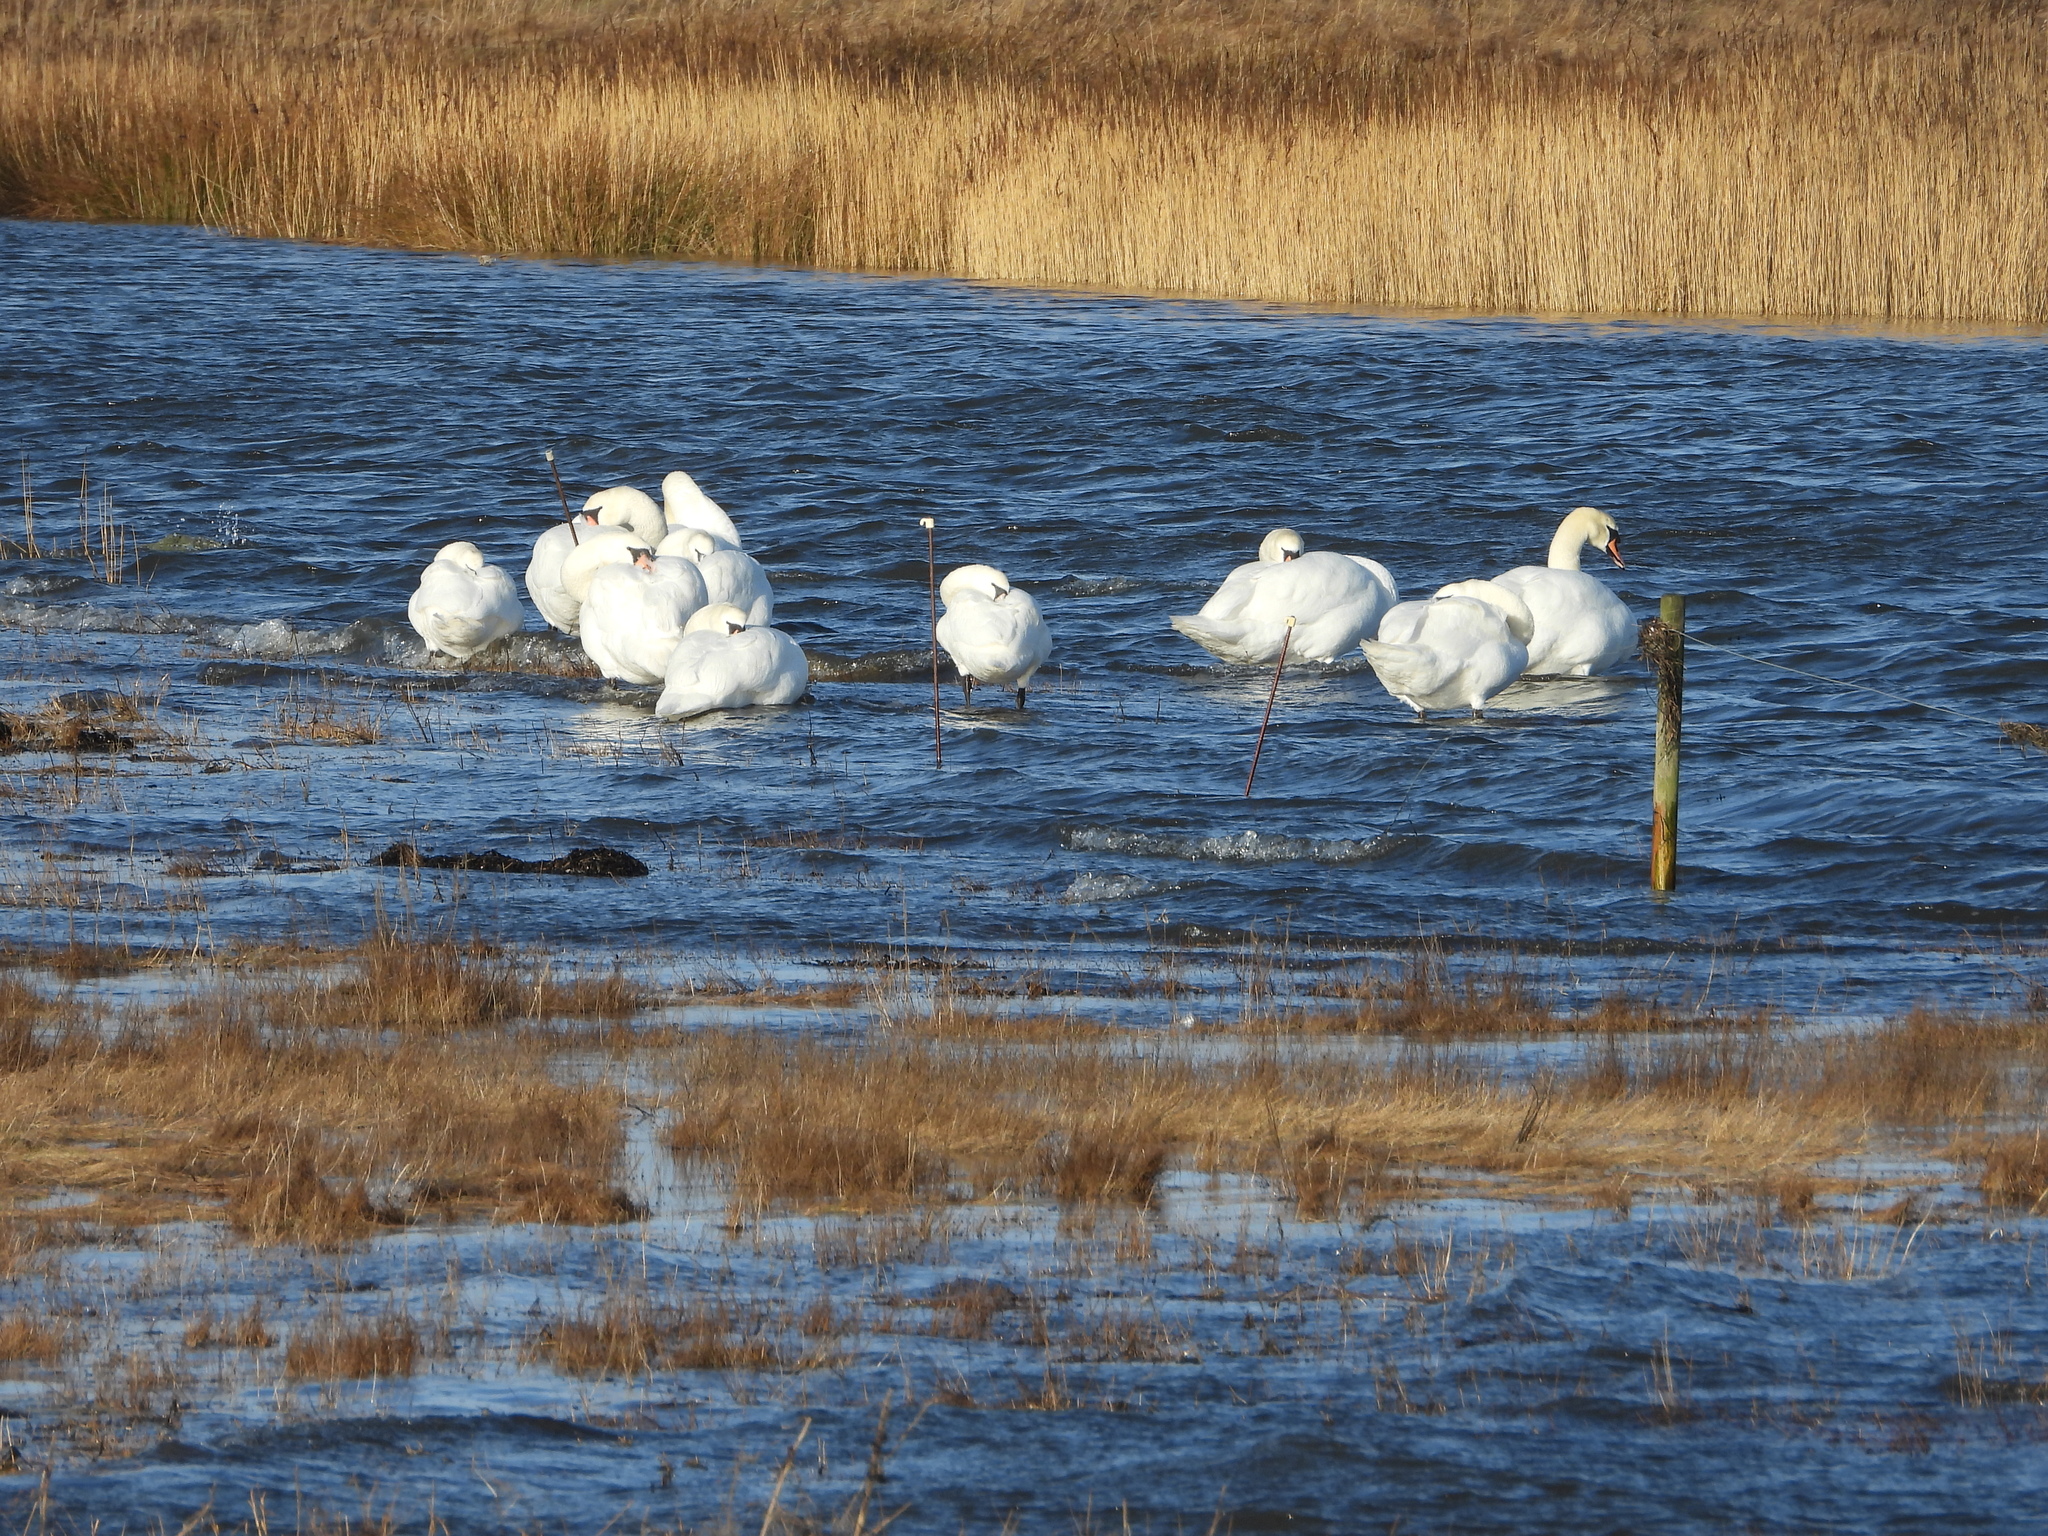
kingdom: Animalia
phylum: Chordata
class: Aves
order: Anseriformes
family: Anatidae
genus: Cygnus
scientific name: Cygnus olor
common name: Mute swan
